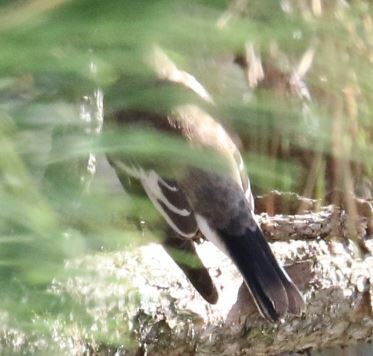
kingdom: Animalia
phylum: Chordata
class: Aves
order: Passeriformes
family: Muscicapidae
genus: Ficedula
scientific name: Ficedula hypoleuca
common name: European pied flycatcher
